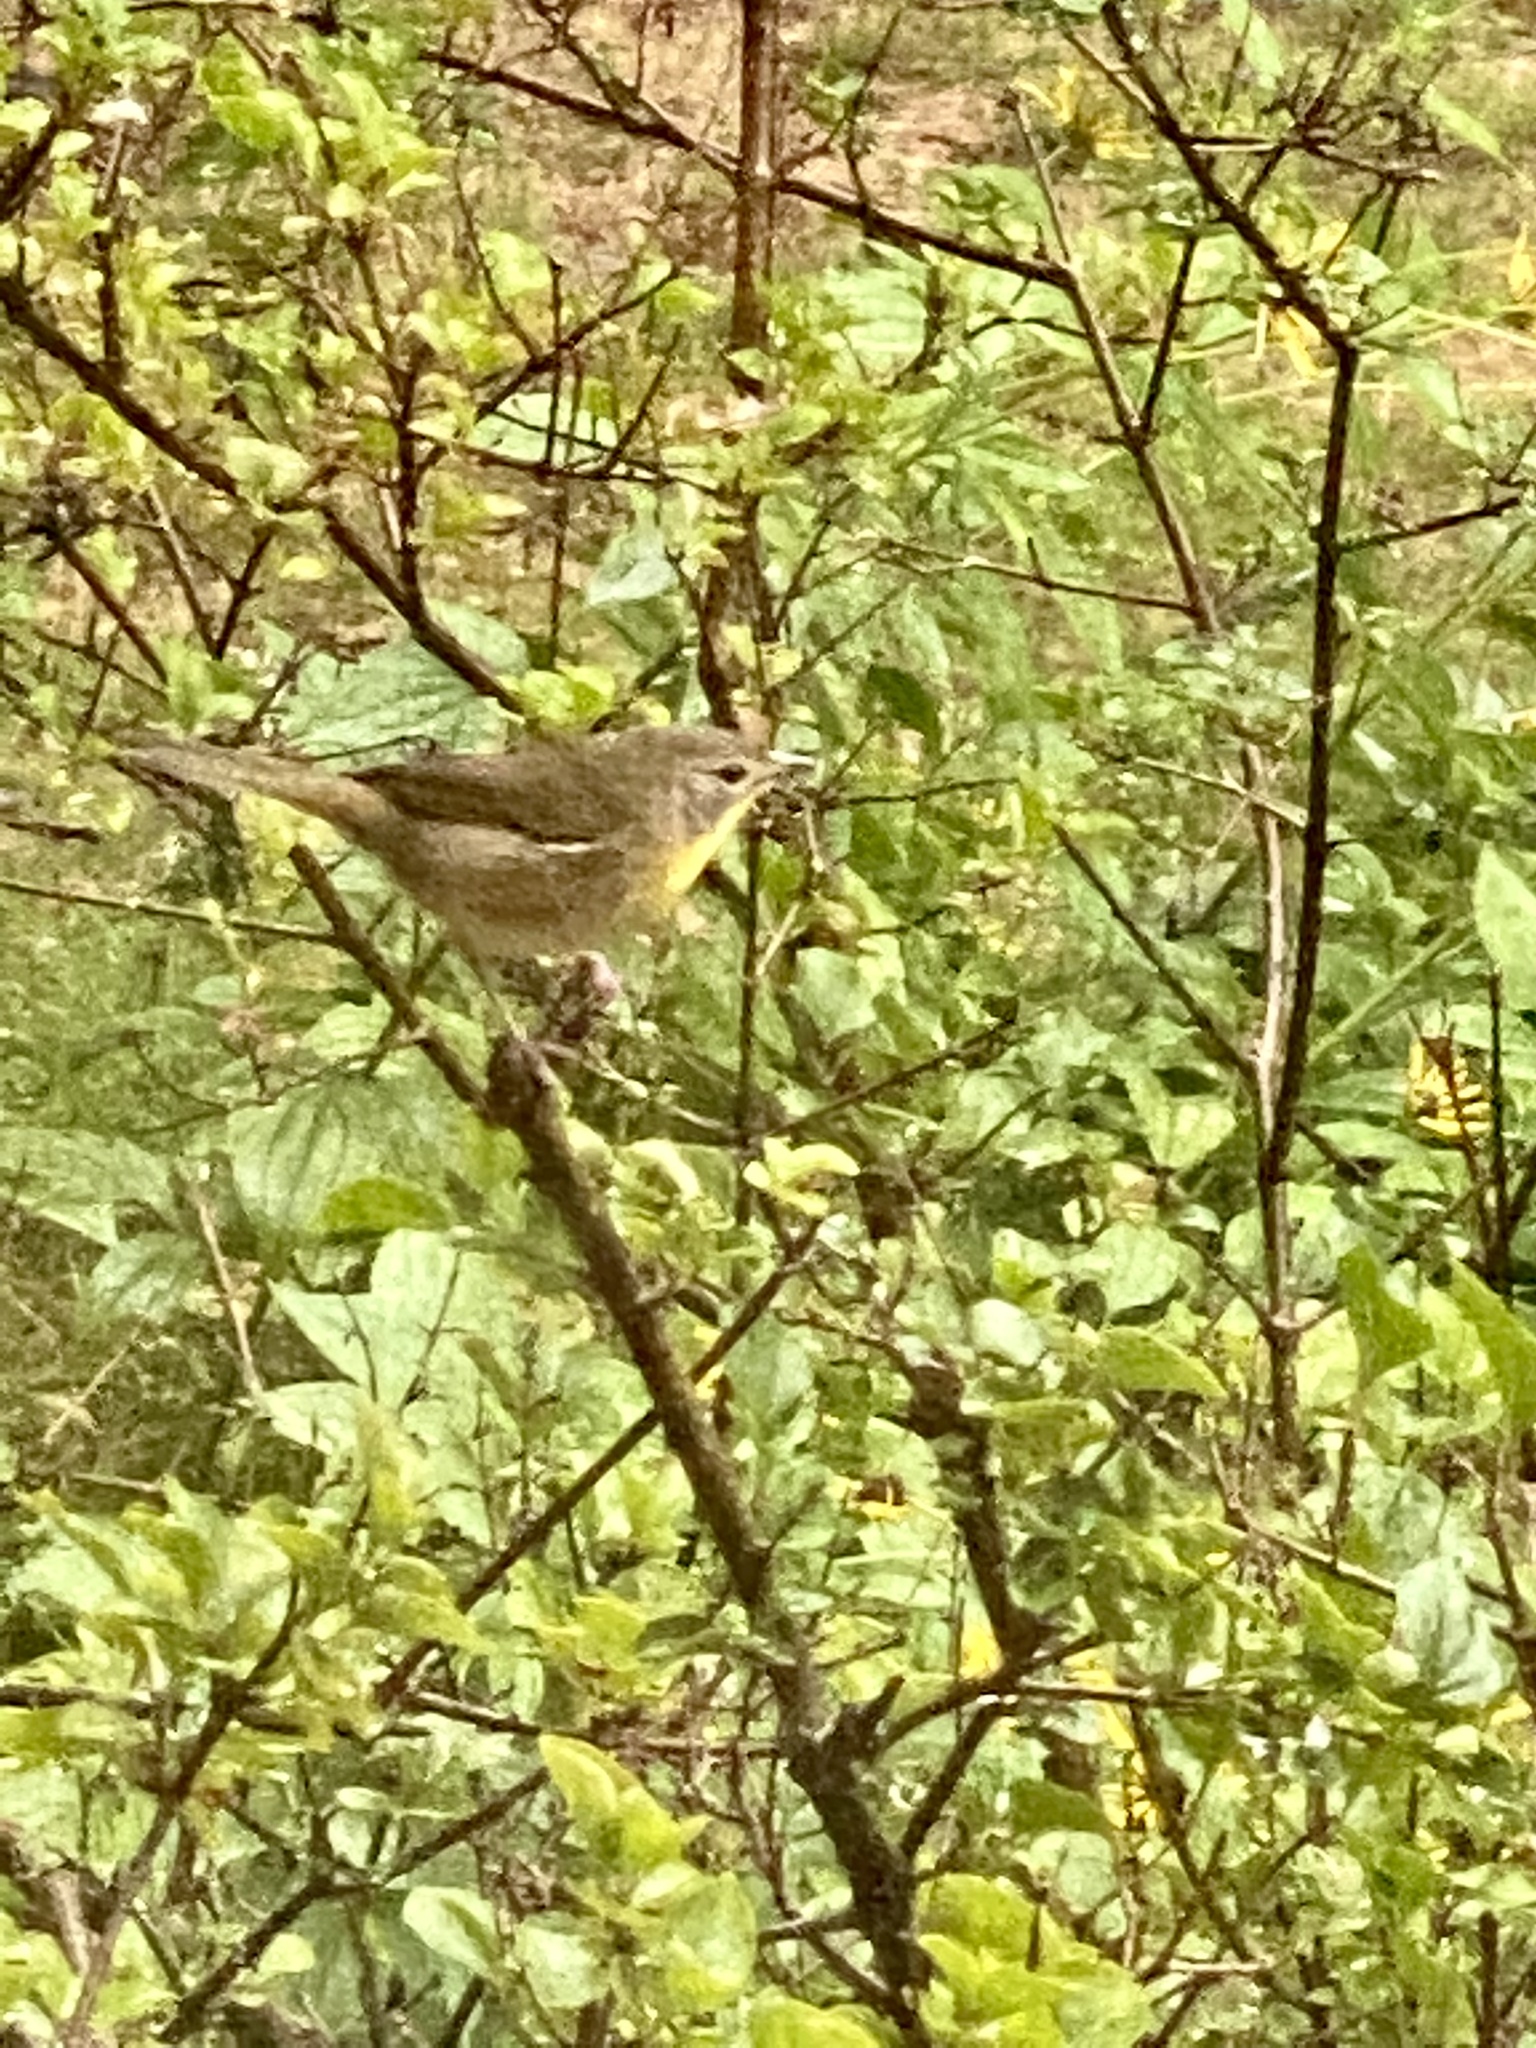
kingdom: Animalia
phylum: Chordata
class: Aves
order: Passeriformes
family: Parulidae
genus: Geothlypis
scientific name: Geothlypis trichas
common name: Common yellowthroat
